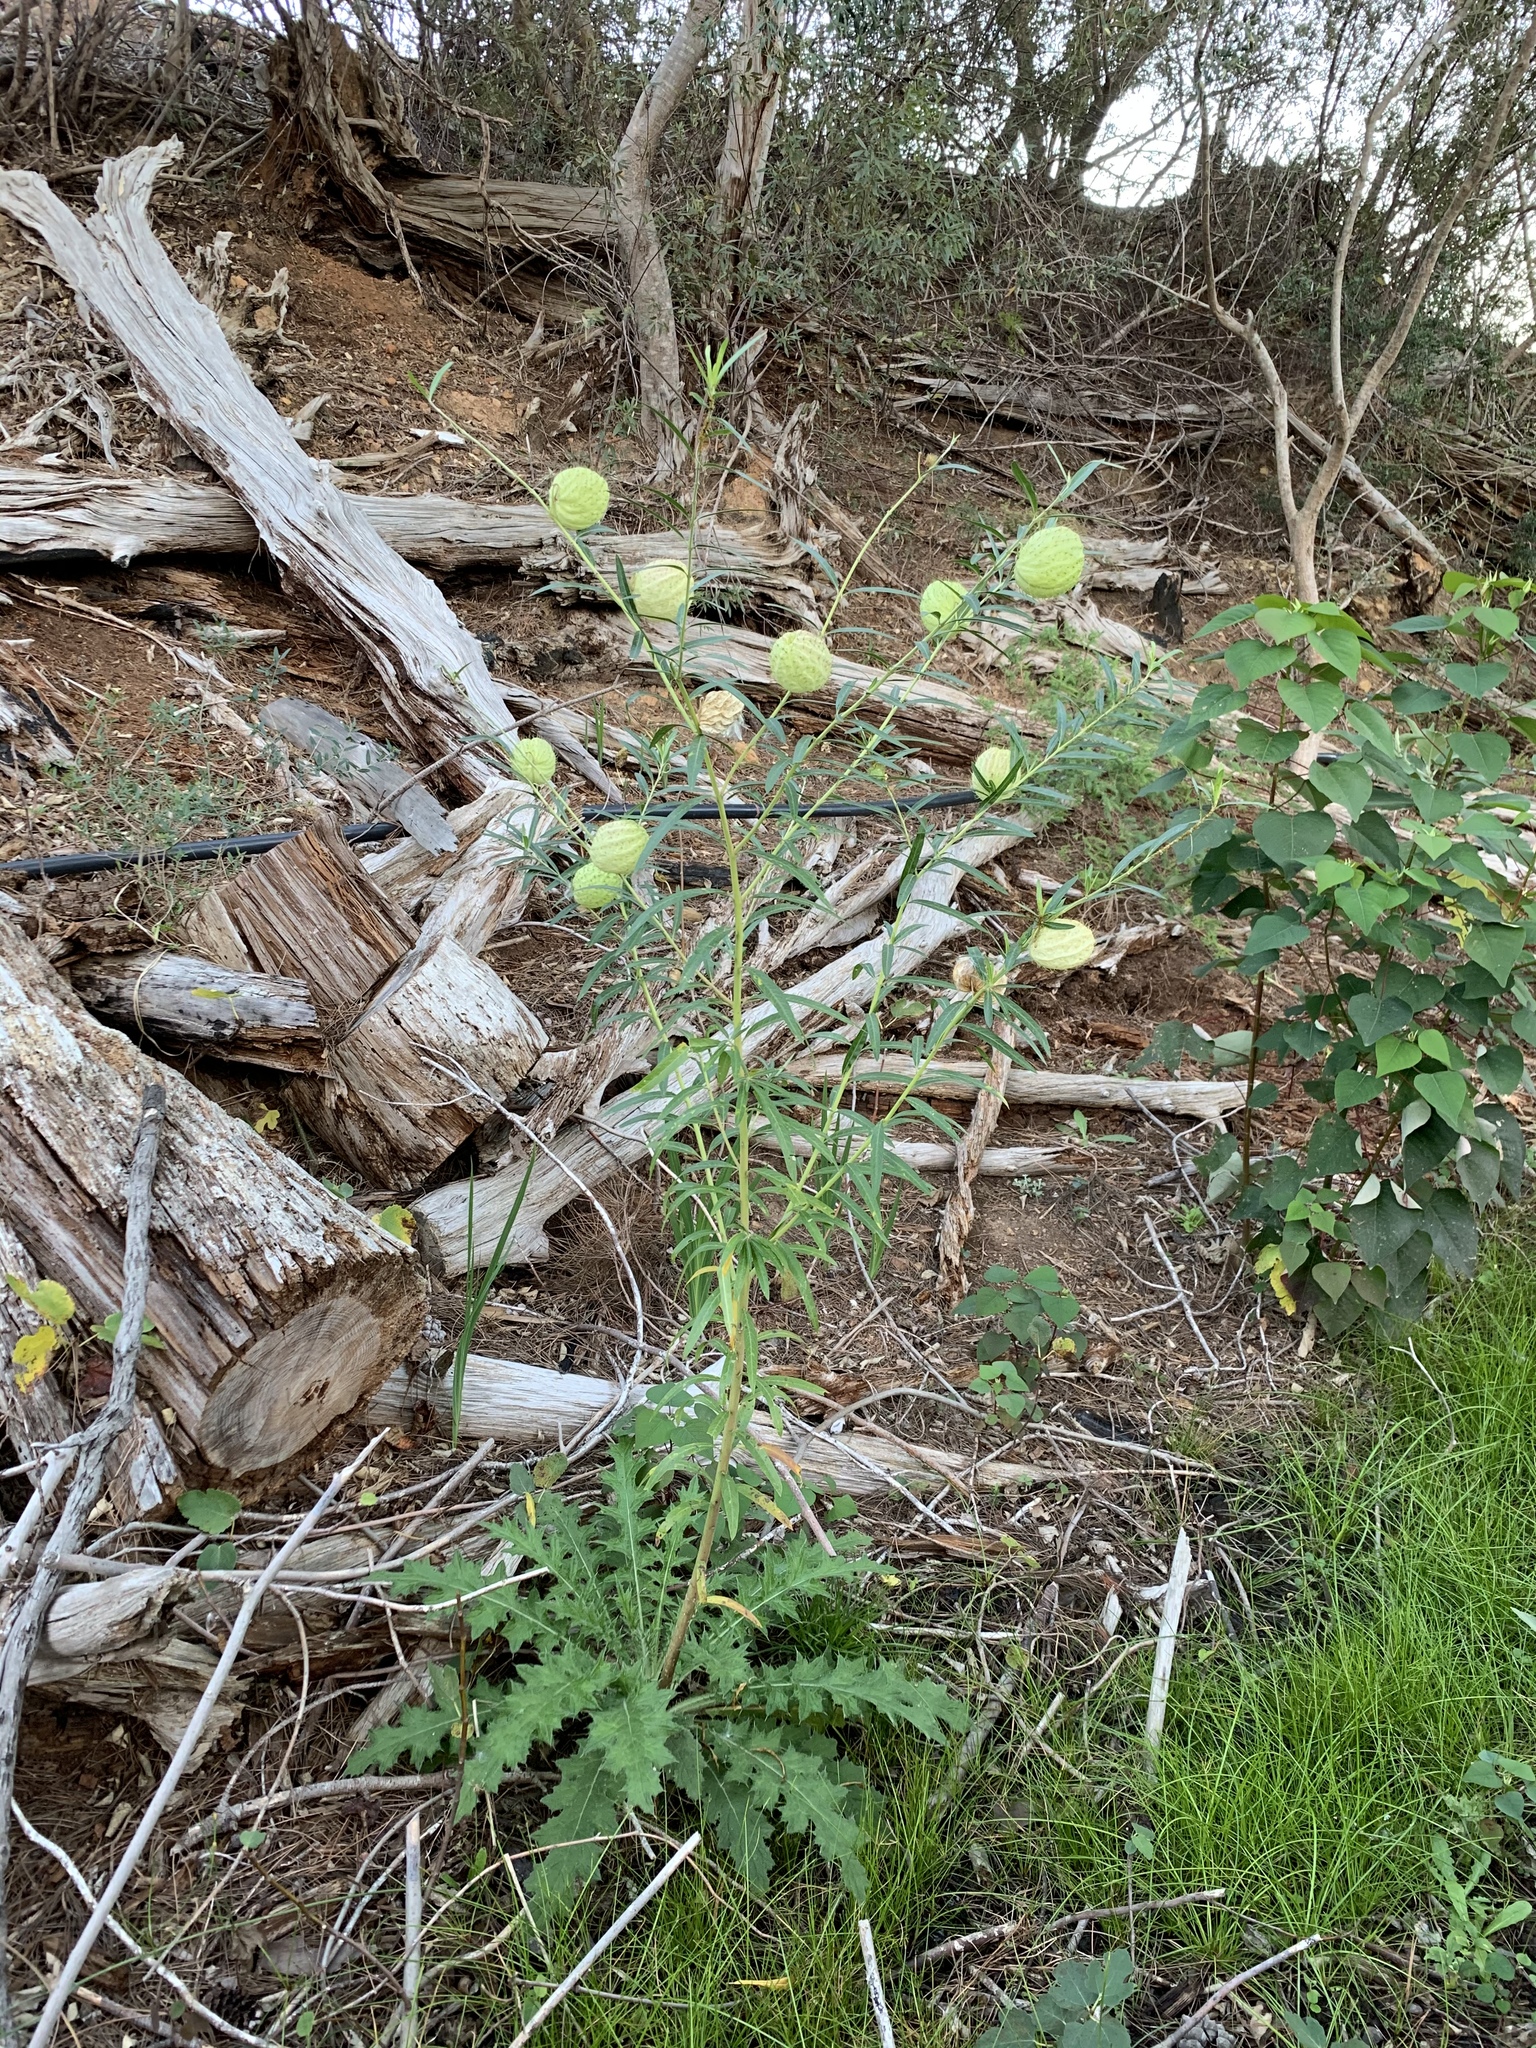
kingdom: Plantae
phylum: Tracheophyta
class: Magnoliopsida
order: Gentianales
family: Apocynaceae
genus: Gomphocarpus
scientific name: Gomphocarpus physocarpus
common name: Balloon cotton bush
